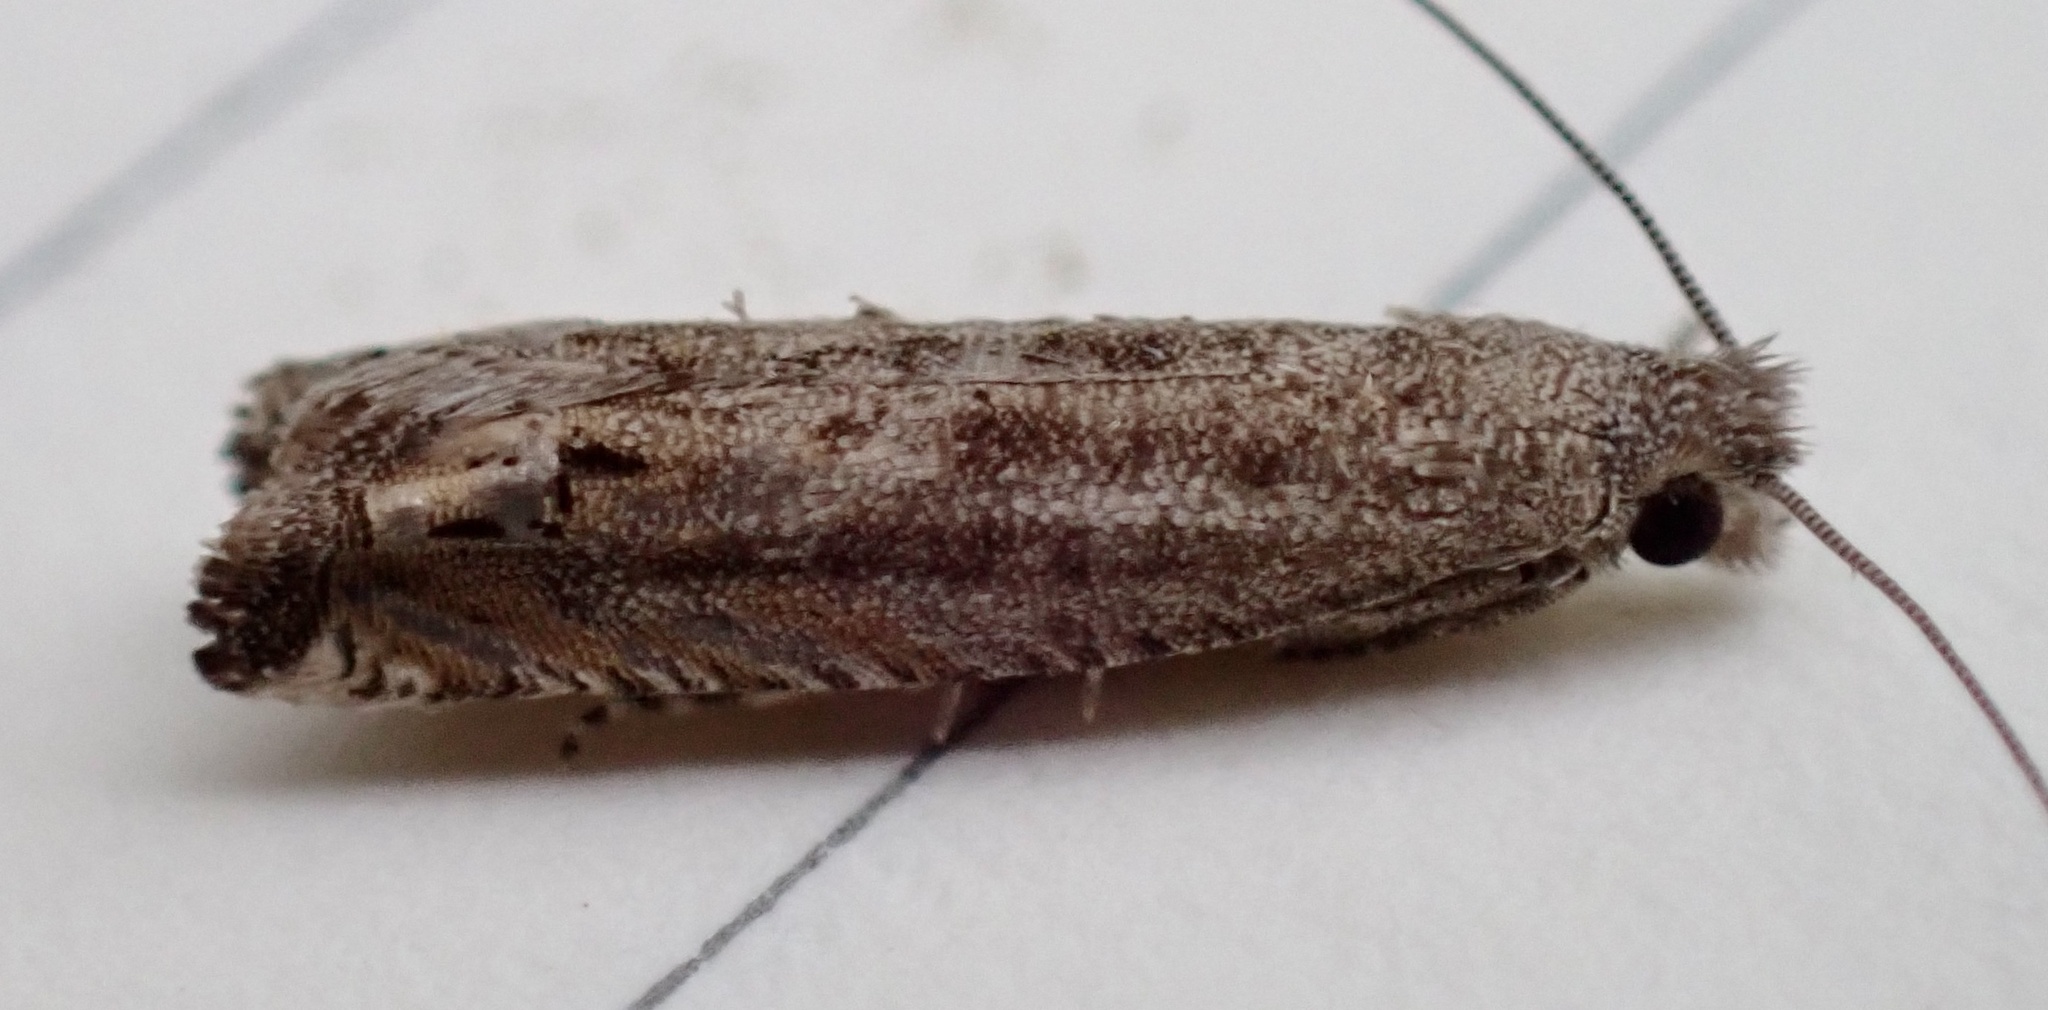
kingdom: Animalia
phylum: Arthropoda
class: Insecta
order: Lepidoptera
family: Tortricidae
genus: Epiblema
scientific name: Epiblema strenuana
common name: Ragweed borer moth
